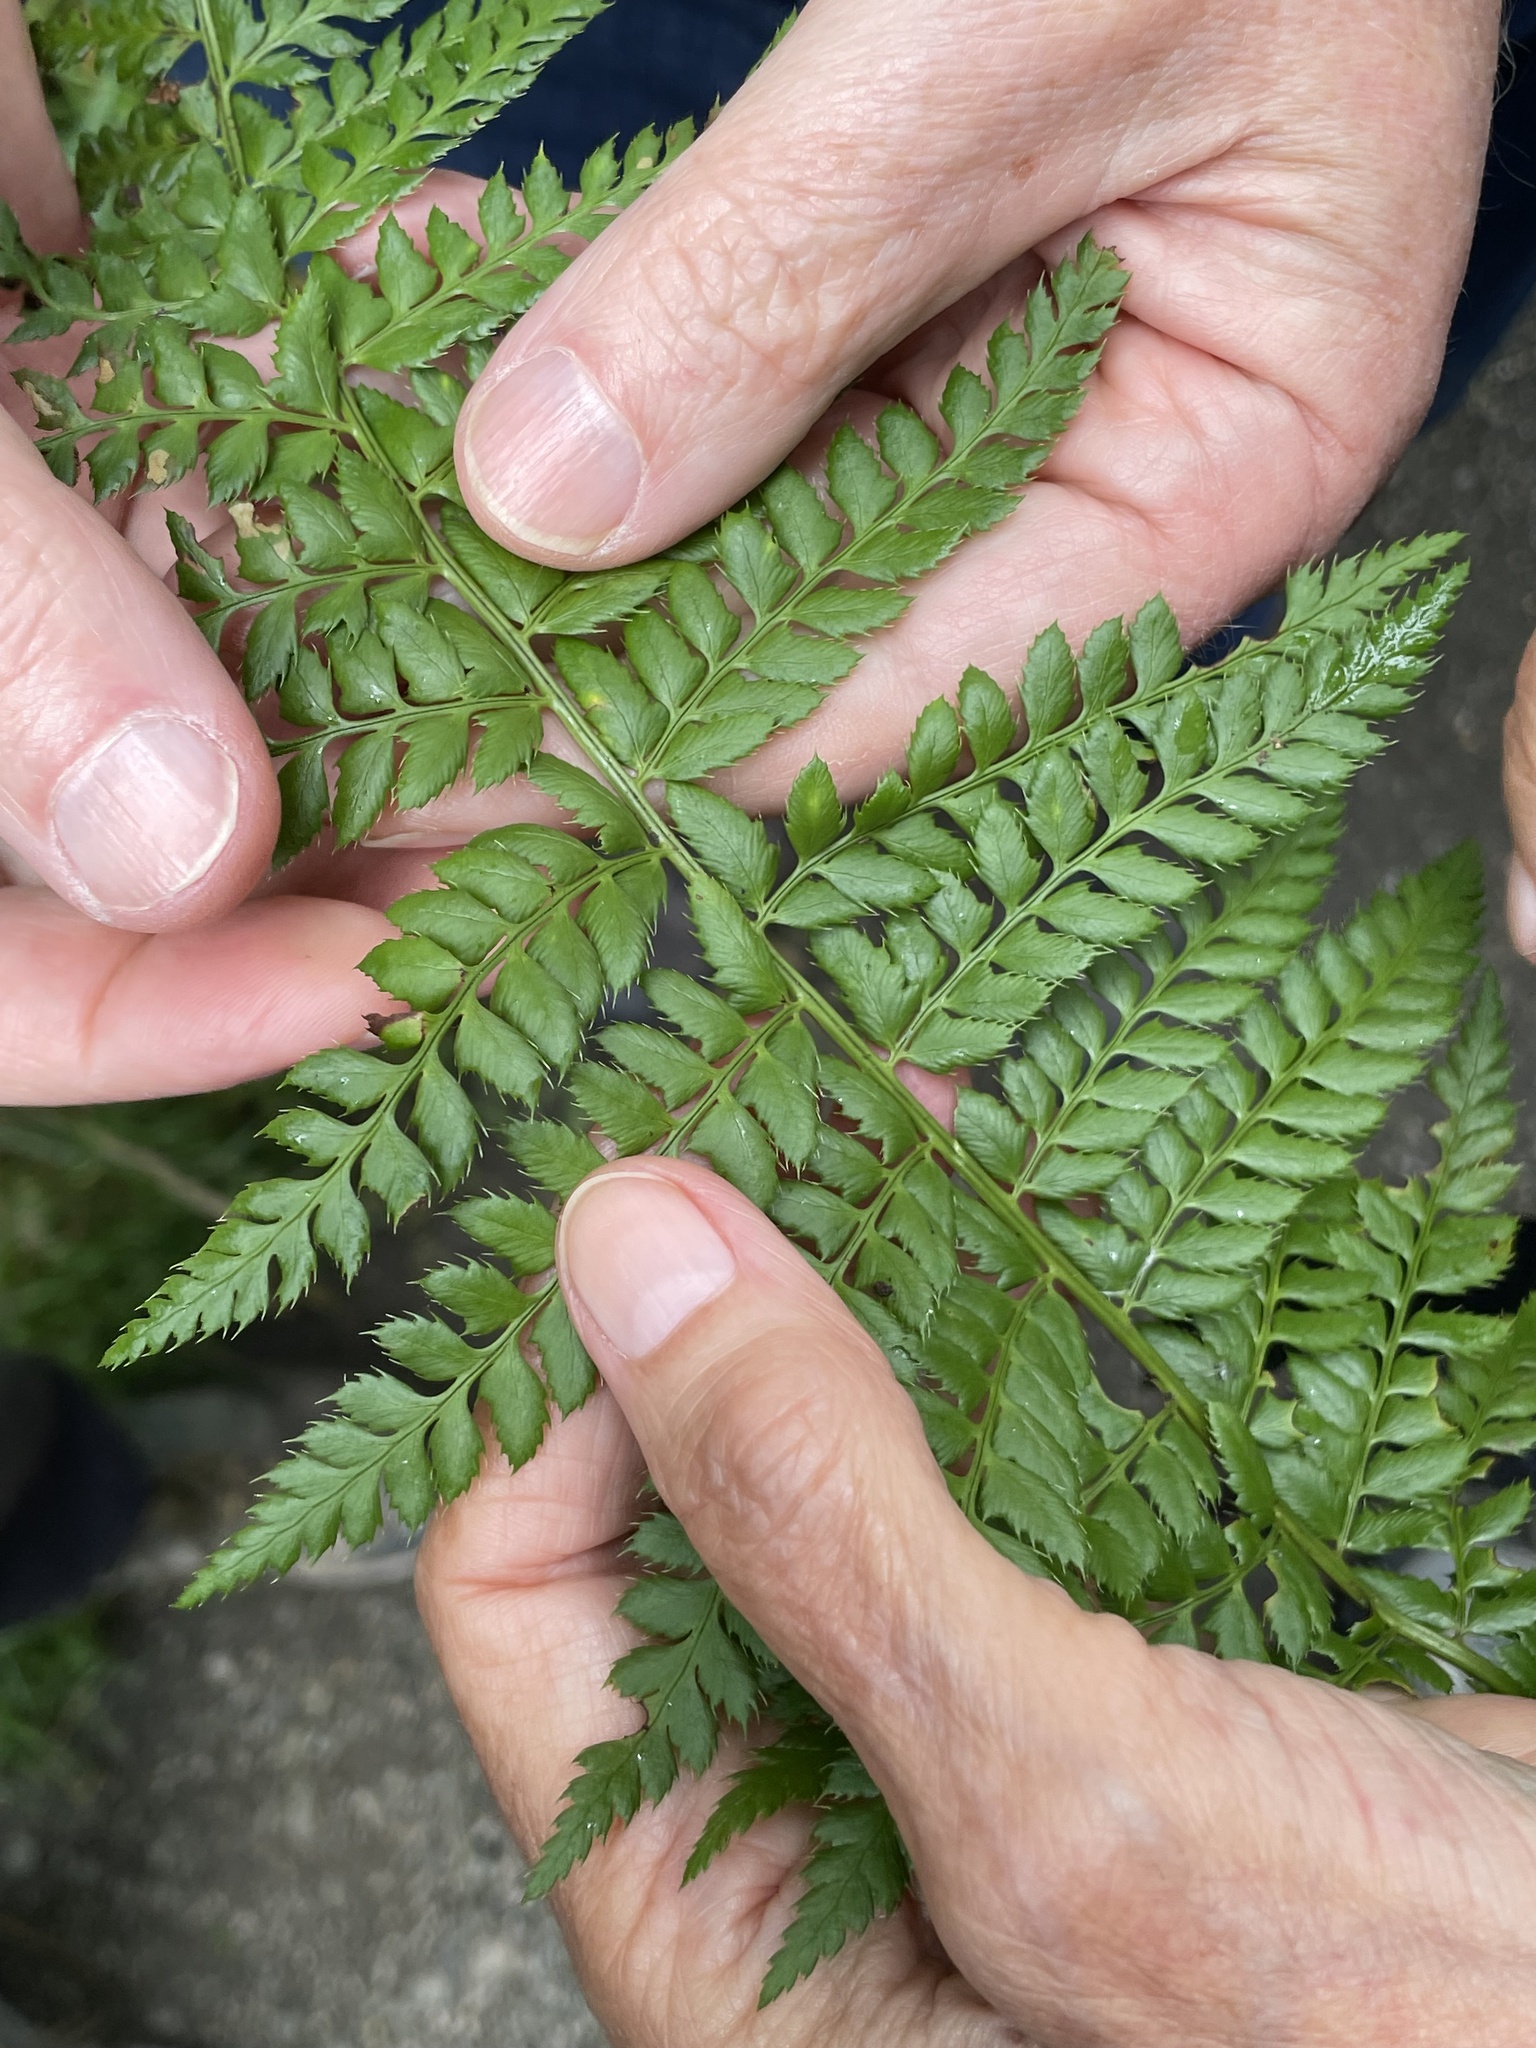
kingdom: Plantae
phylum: Tracheophyta
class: Polypodiopsida
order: Polypodiales
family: Dryopteridaceae
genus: Polystichum
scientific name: Polystichum aculeatum
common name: Hard shield-fern
